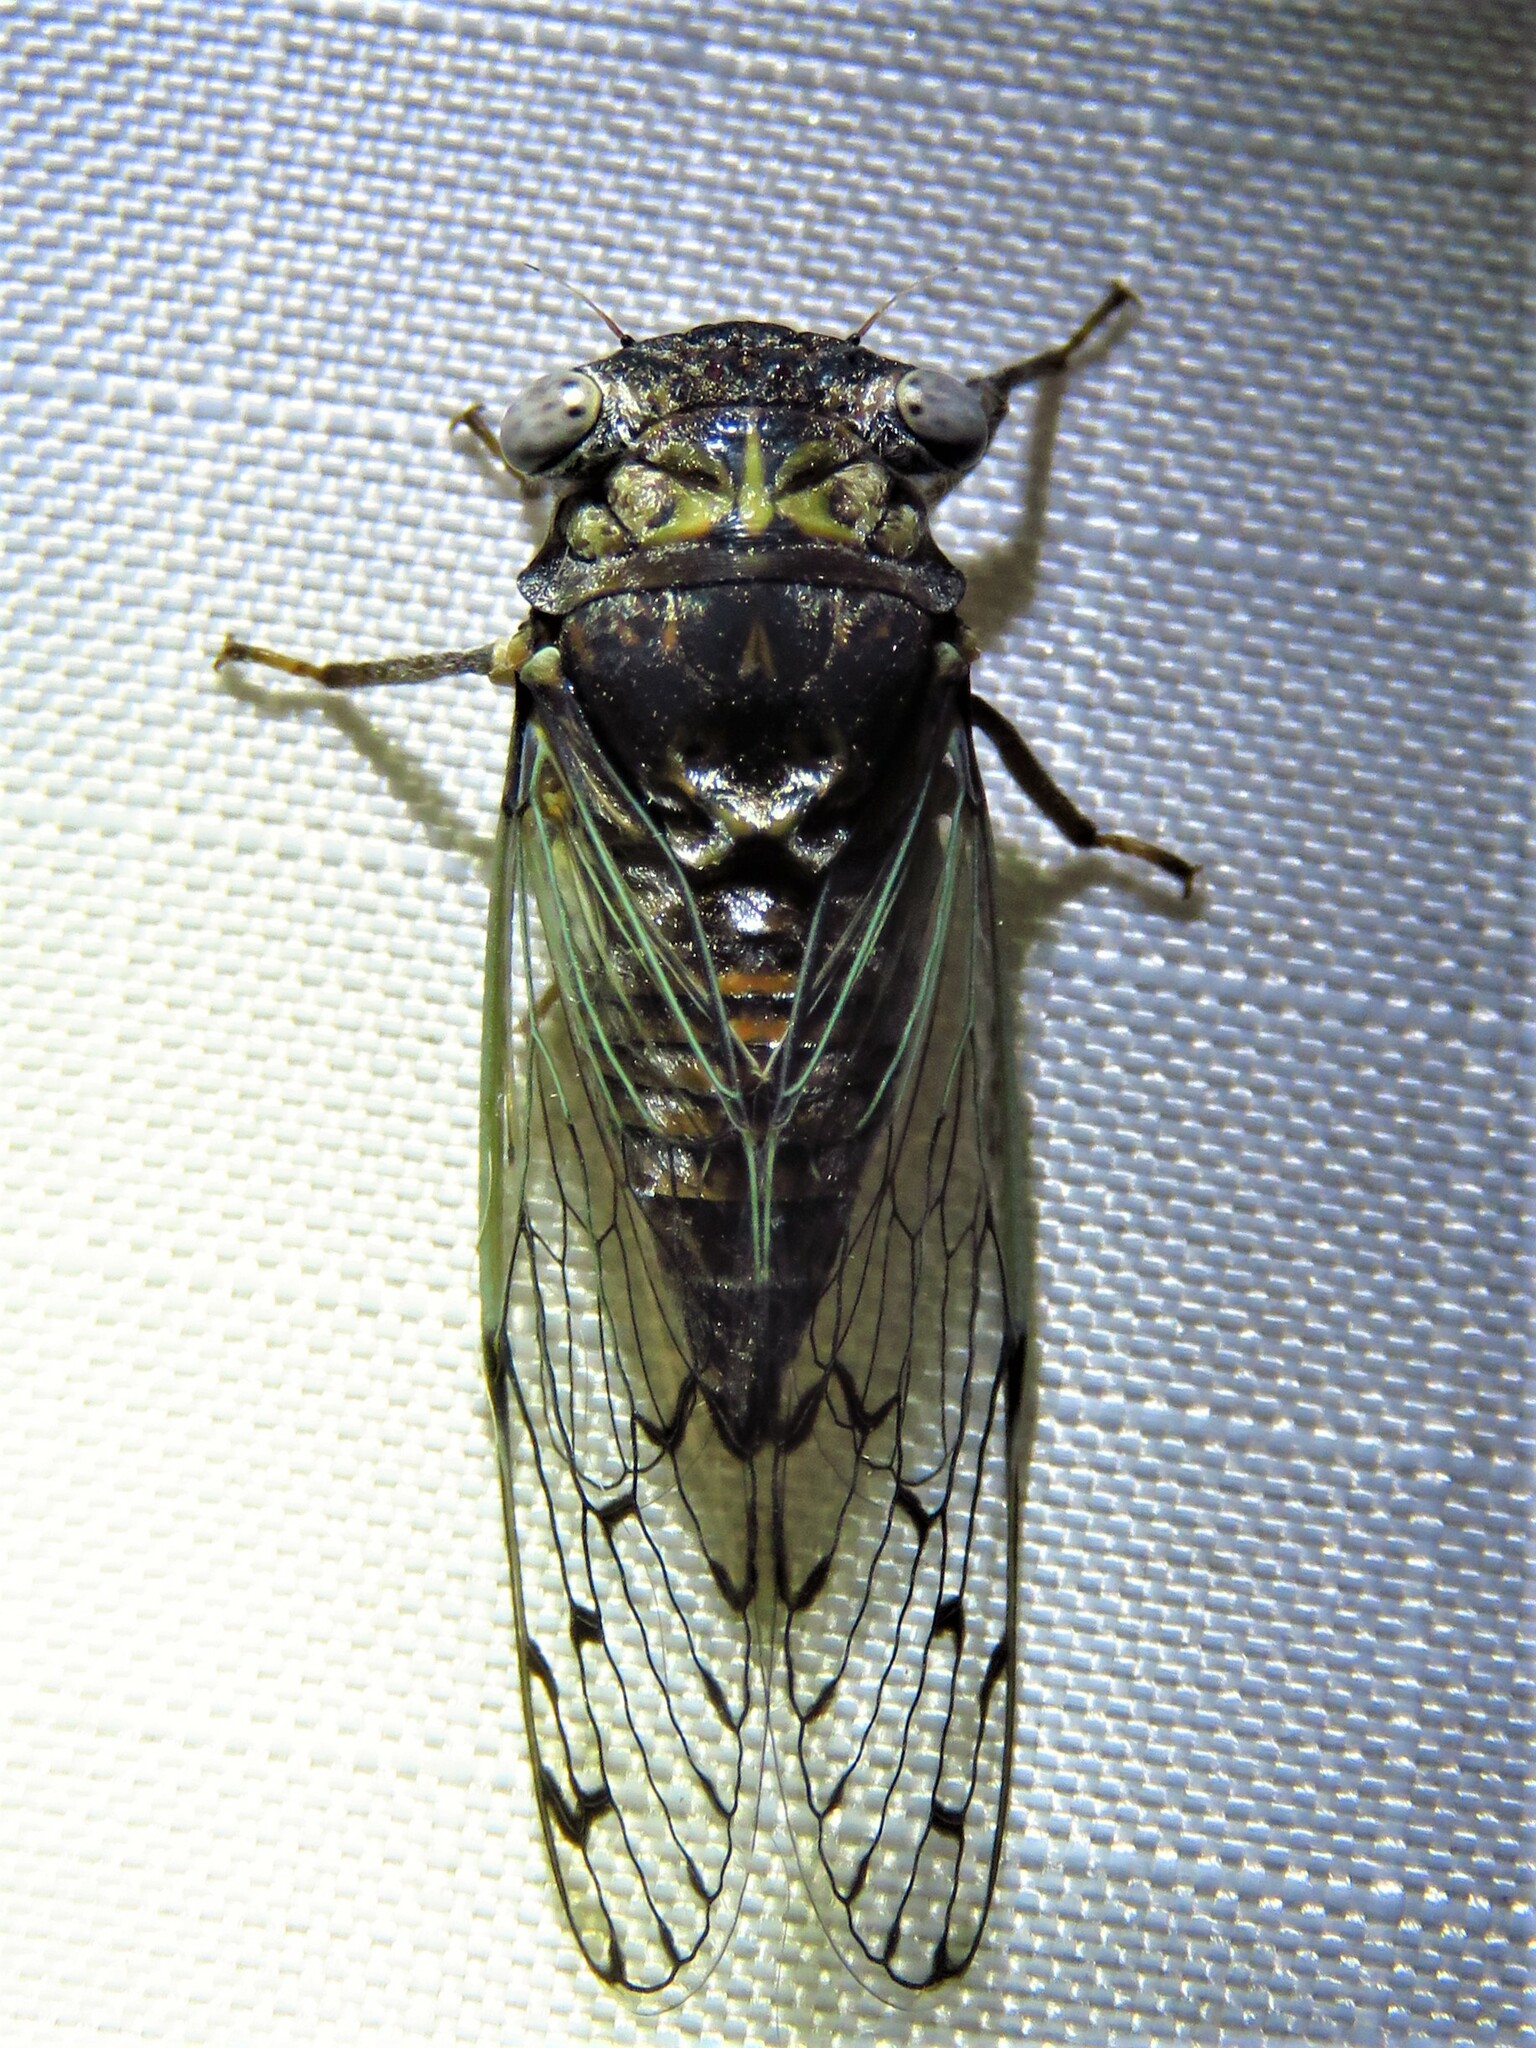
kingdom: Animalia
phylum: Arthropoda
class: Insecta
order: Hemiptera
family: Cicadidae
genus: Pacarina
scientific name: Pacarina puella
